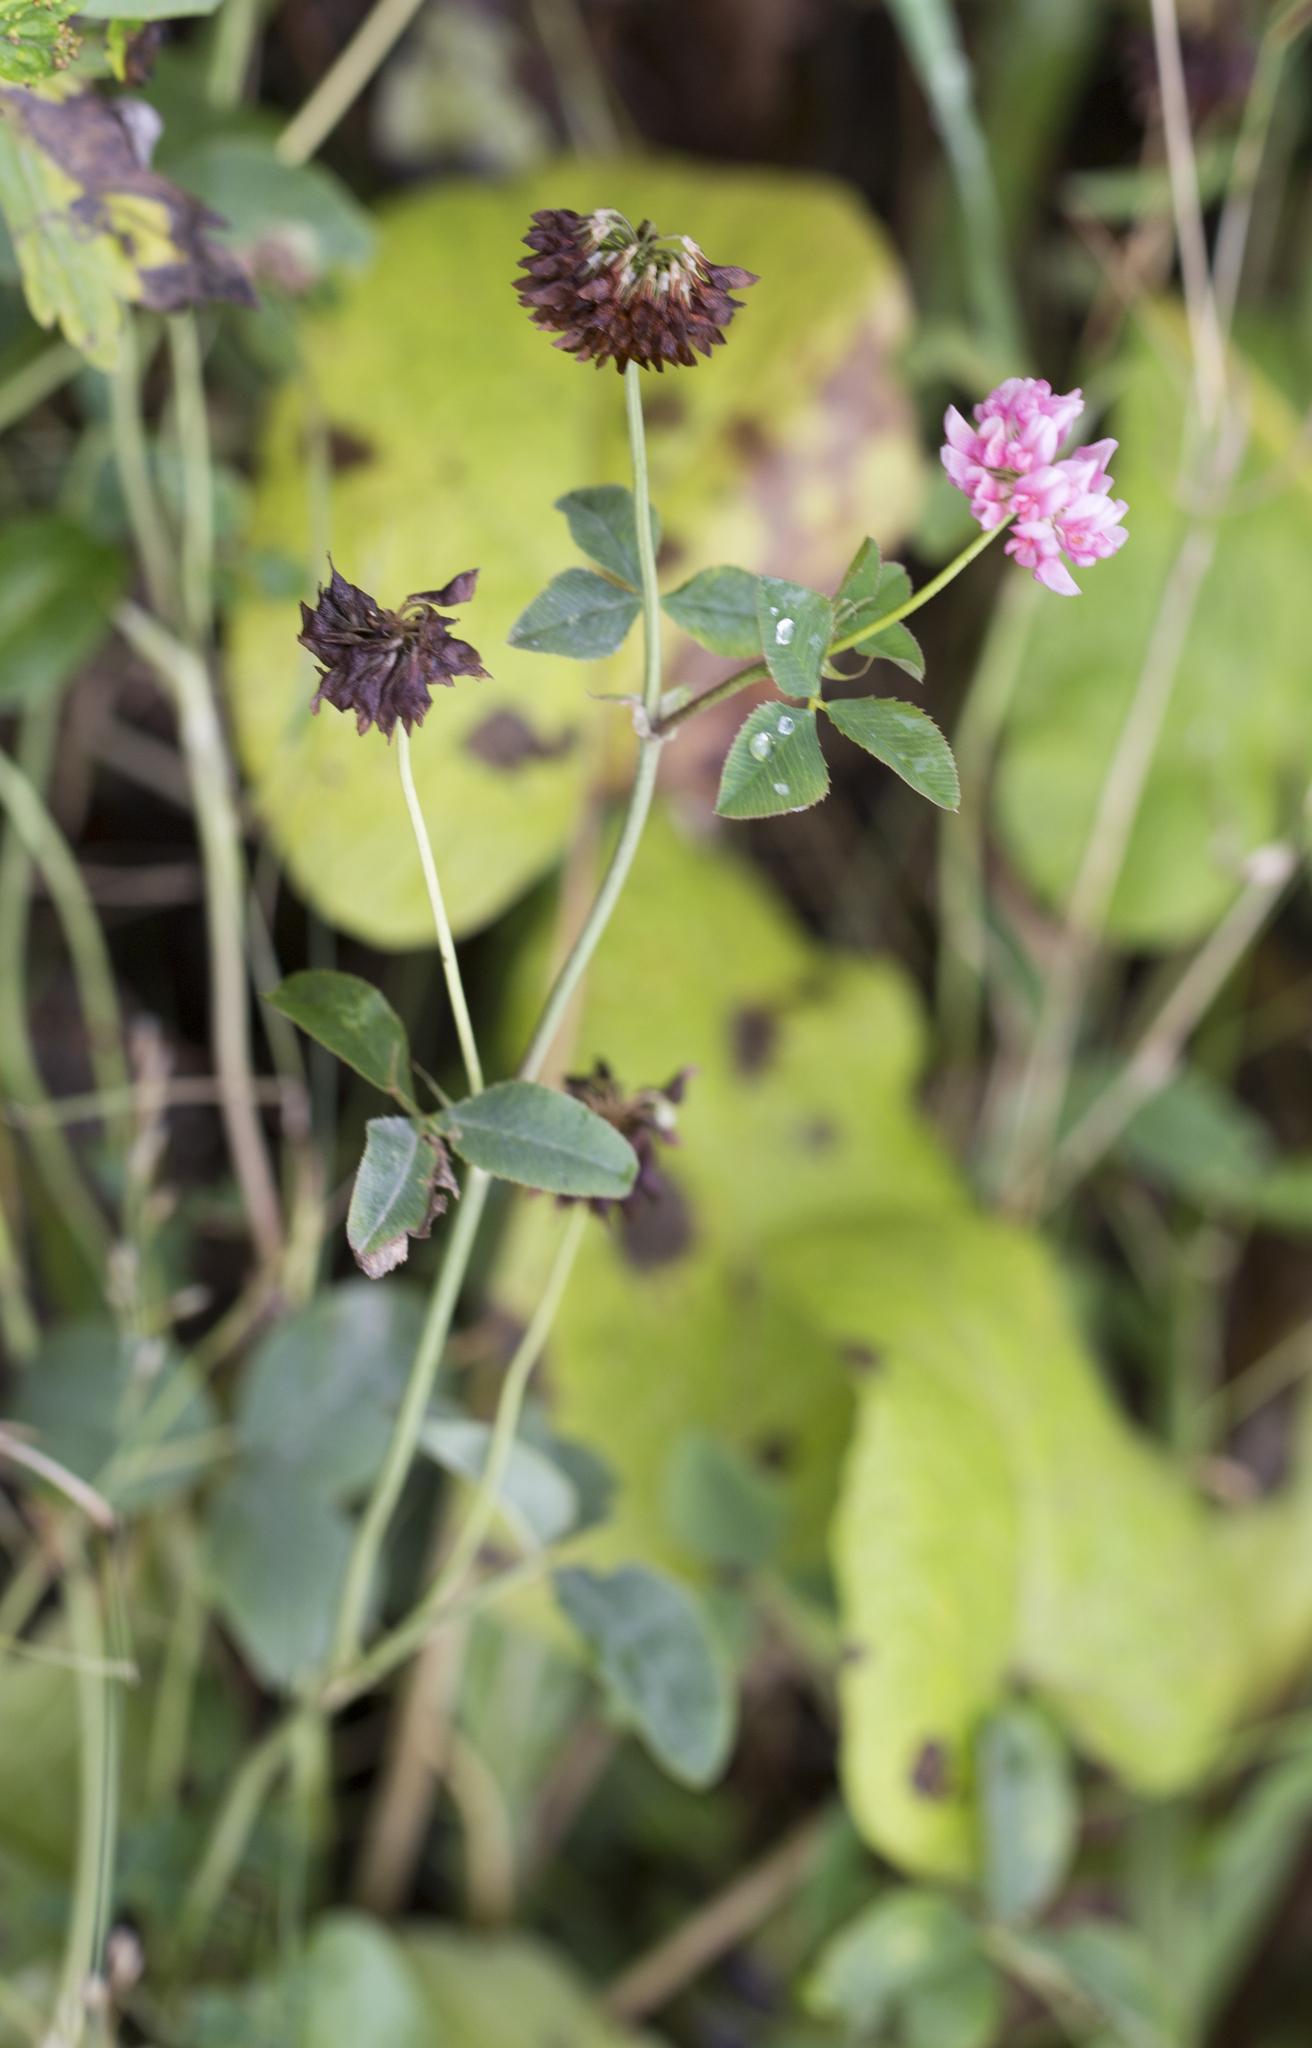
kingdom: Plantae
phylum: Tracheophyta
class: Magnoliopsida
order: Fabales
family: Fabaceae
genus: Trifolium
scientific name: Trifolium hybridum
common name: Alsike clover
